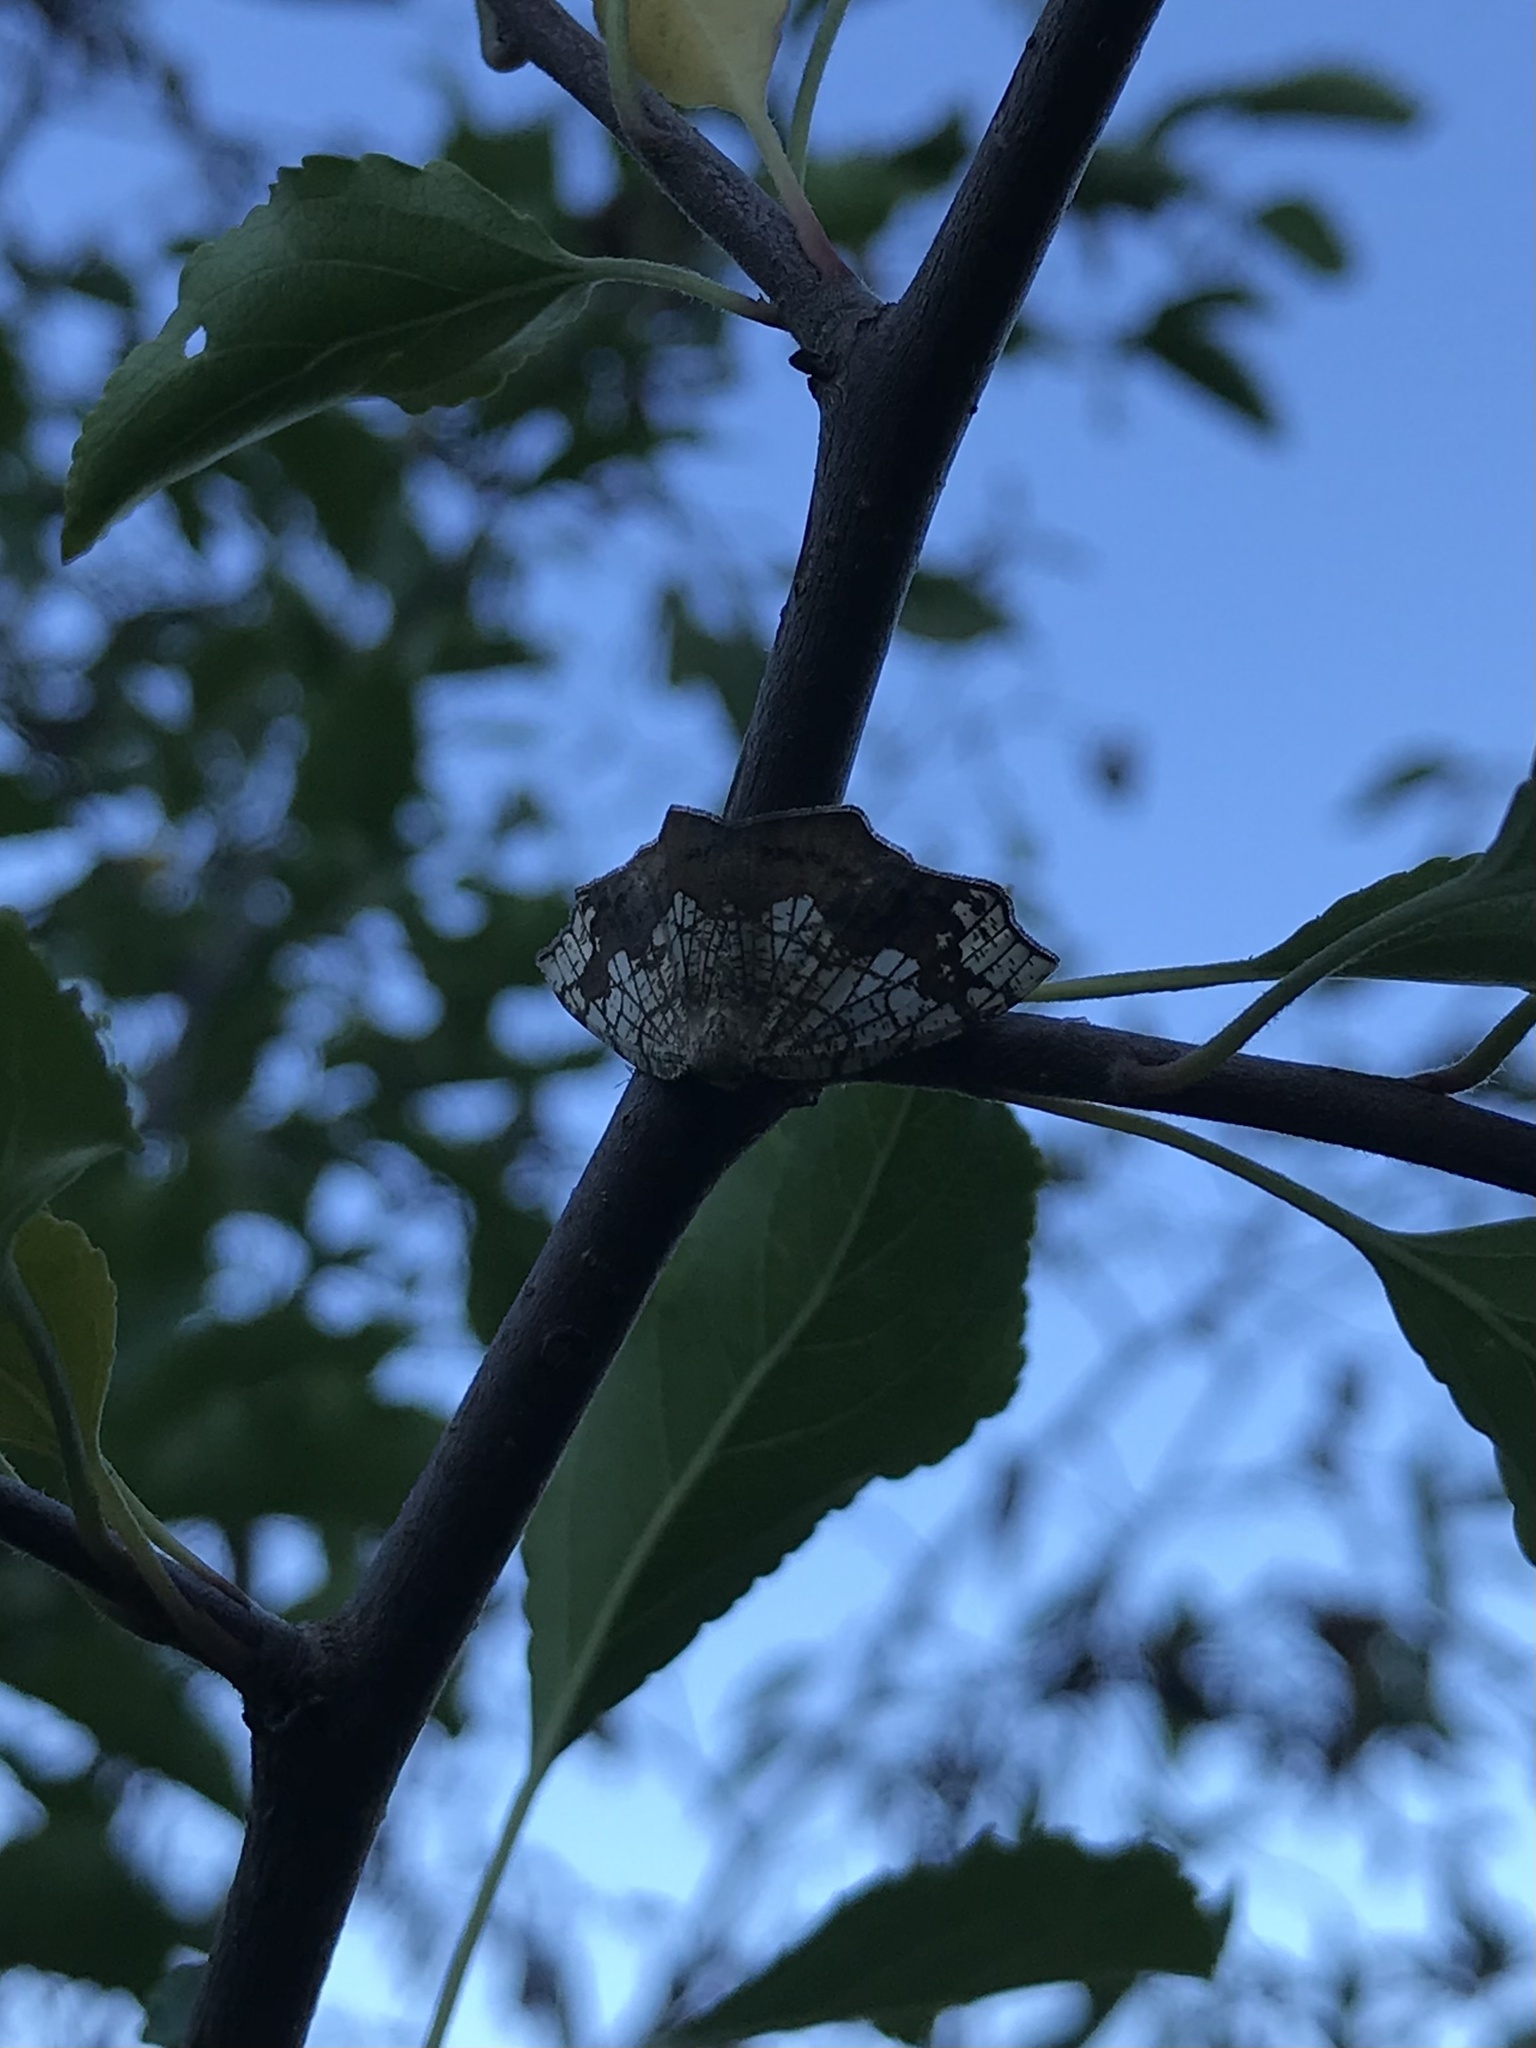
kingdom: Animalia
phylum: Arthropoda
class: Insecta
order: Lepidoptera
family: Geometridae
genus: Nematocampa
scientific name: Nematocampa resistaria
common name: Horned spanworm moth
